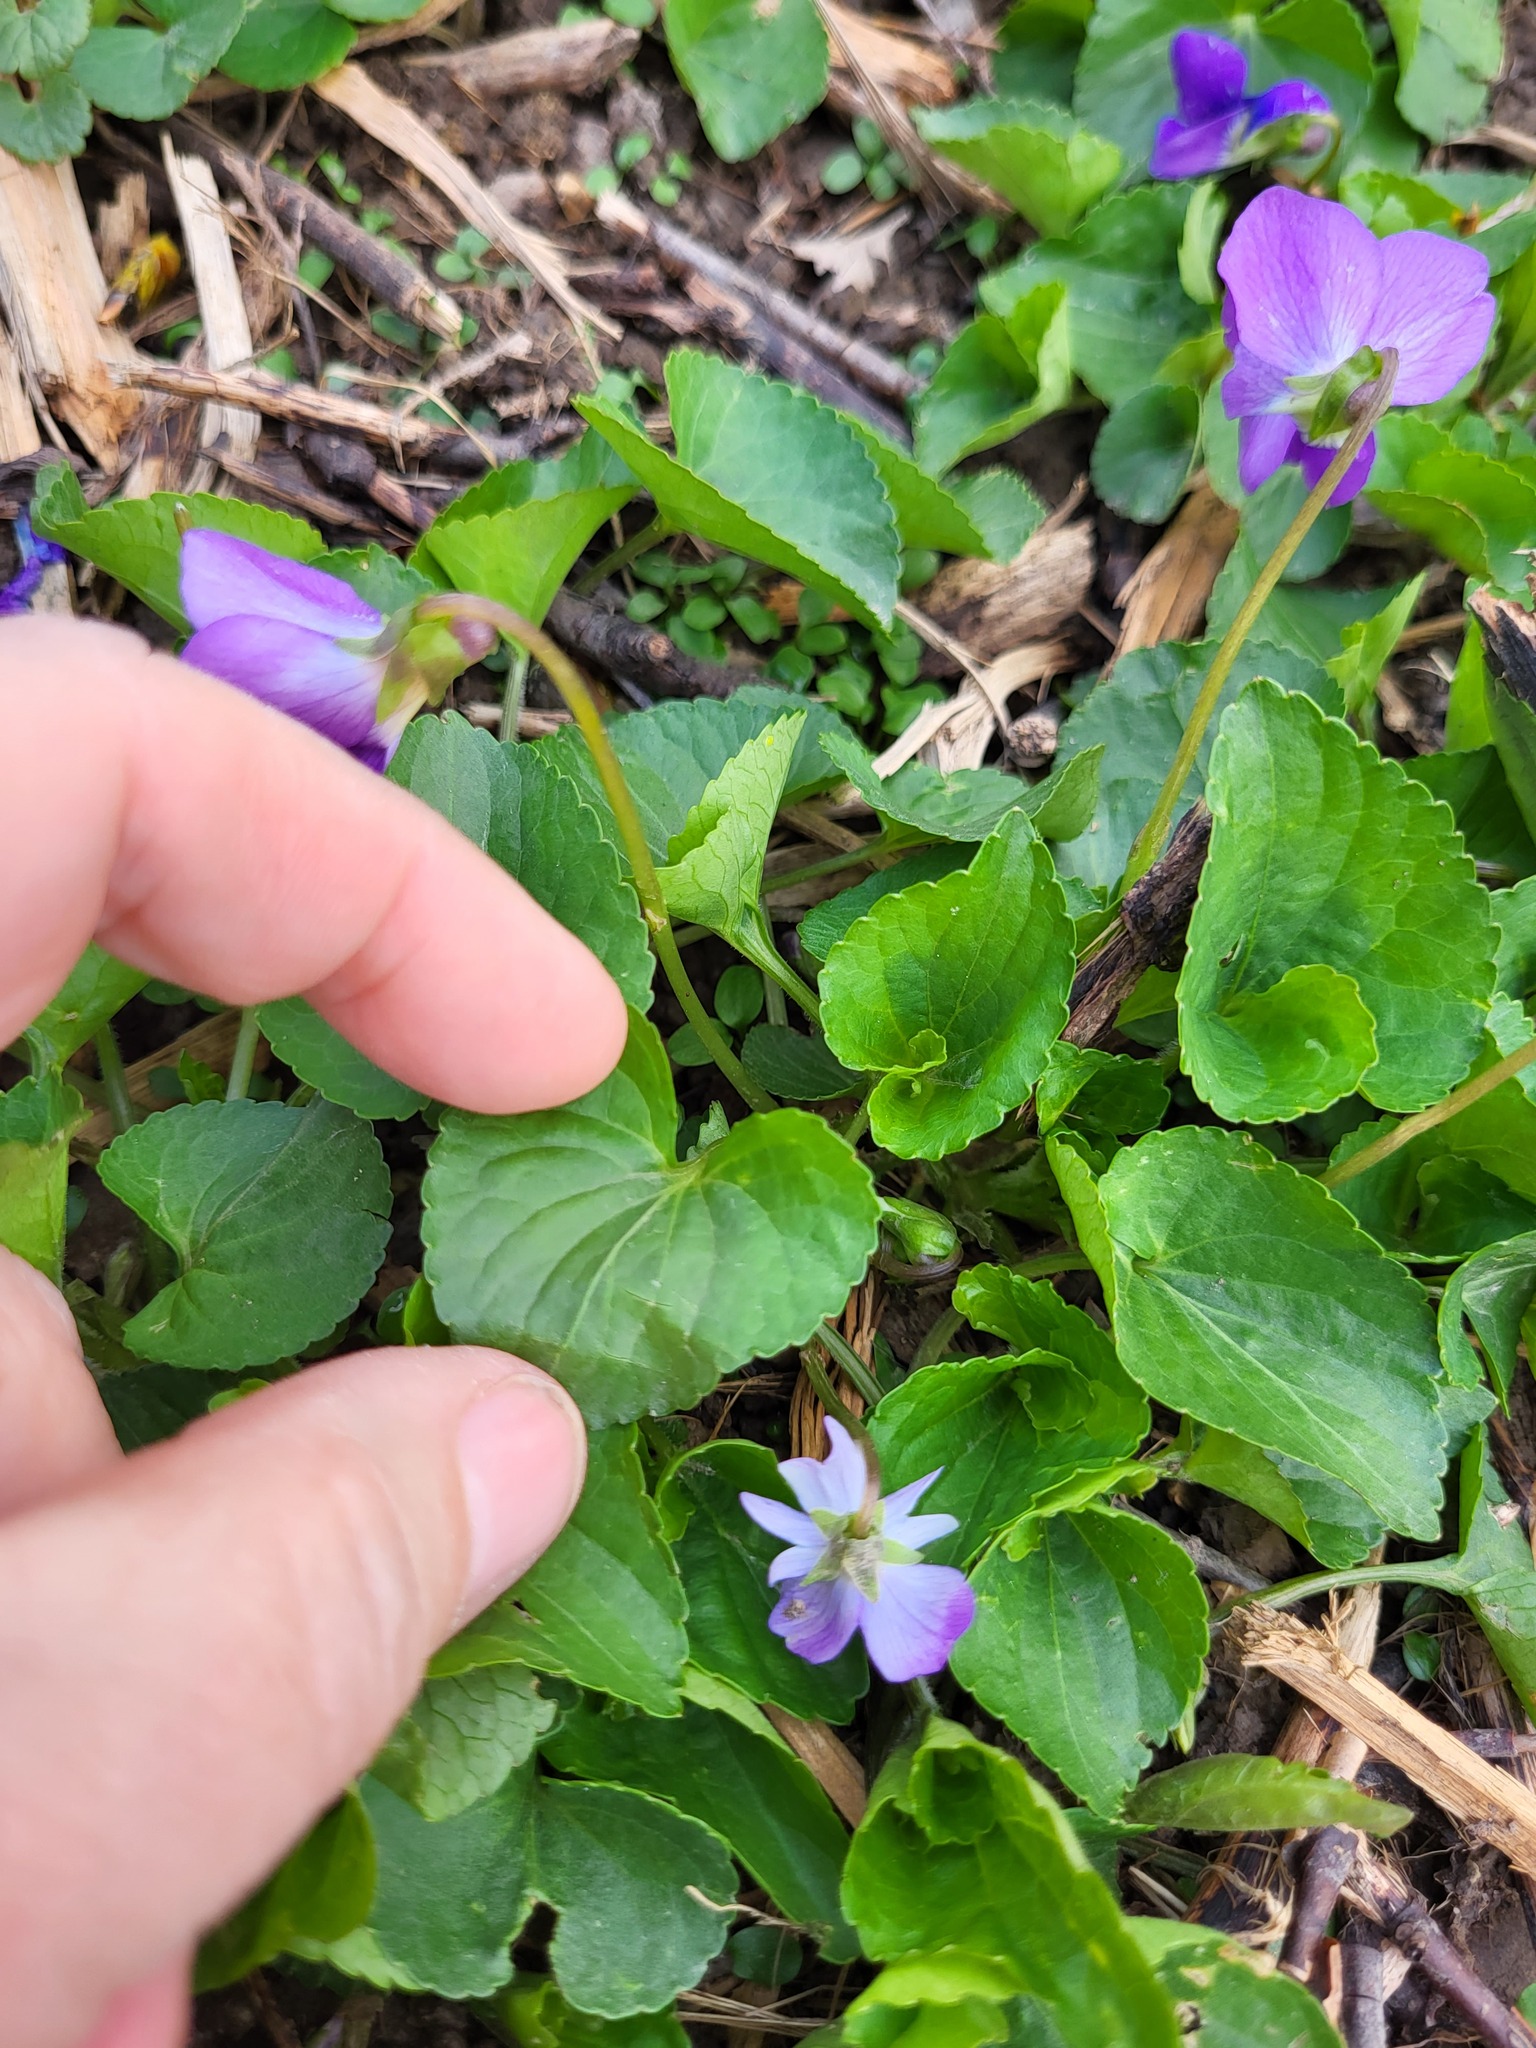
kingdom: Plantae
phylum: Tracheophyta
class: Magnoliopsida
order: Malpighiales
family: Violaceae
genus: Viola
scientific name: Viola sororia
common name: Dooryard violet
